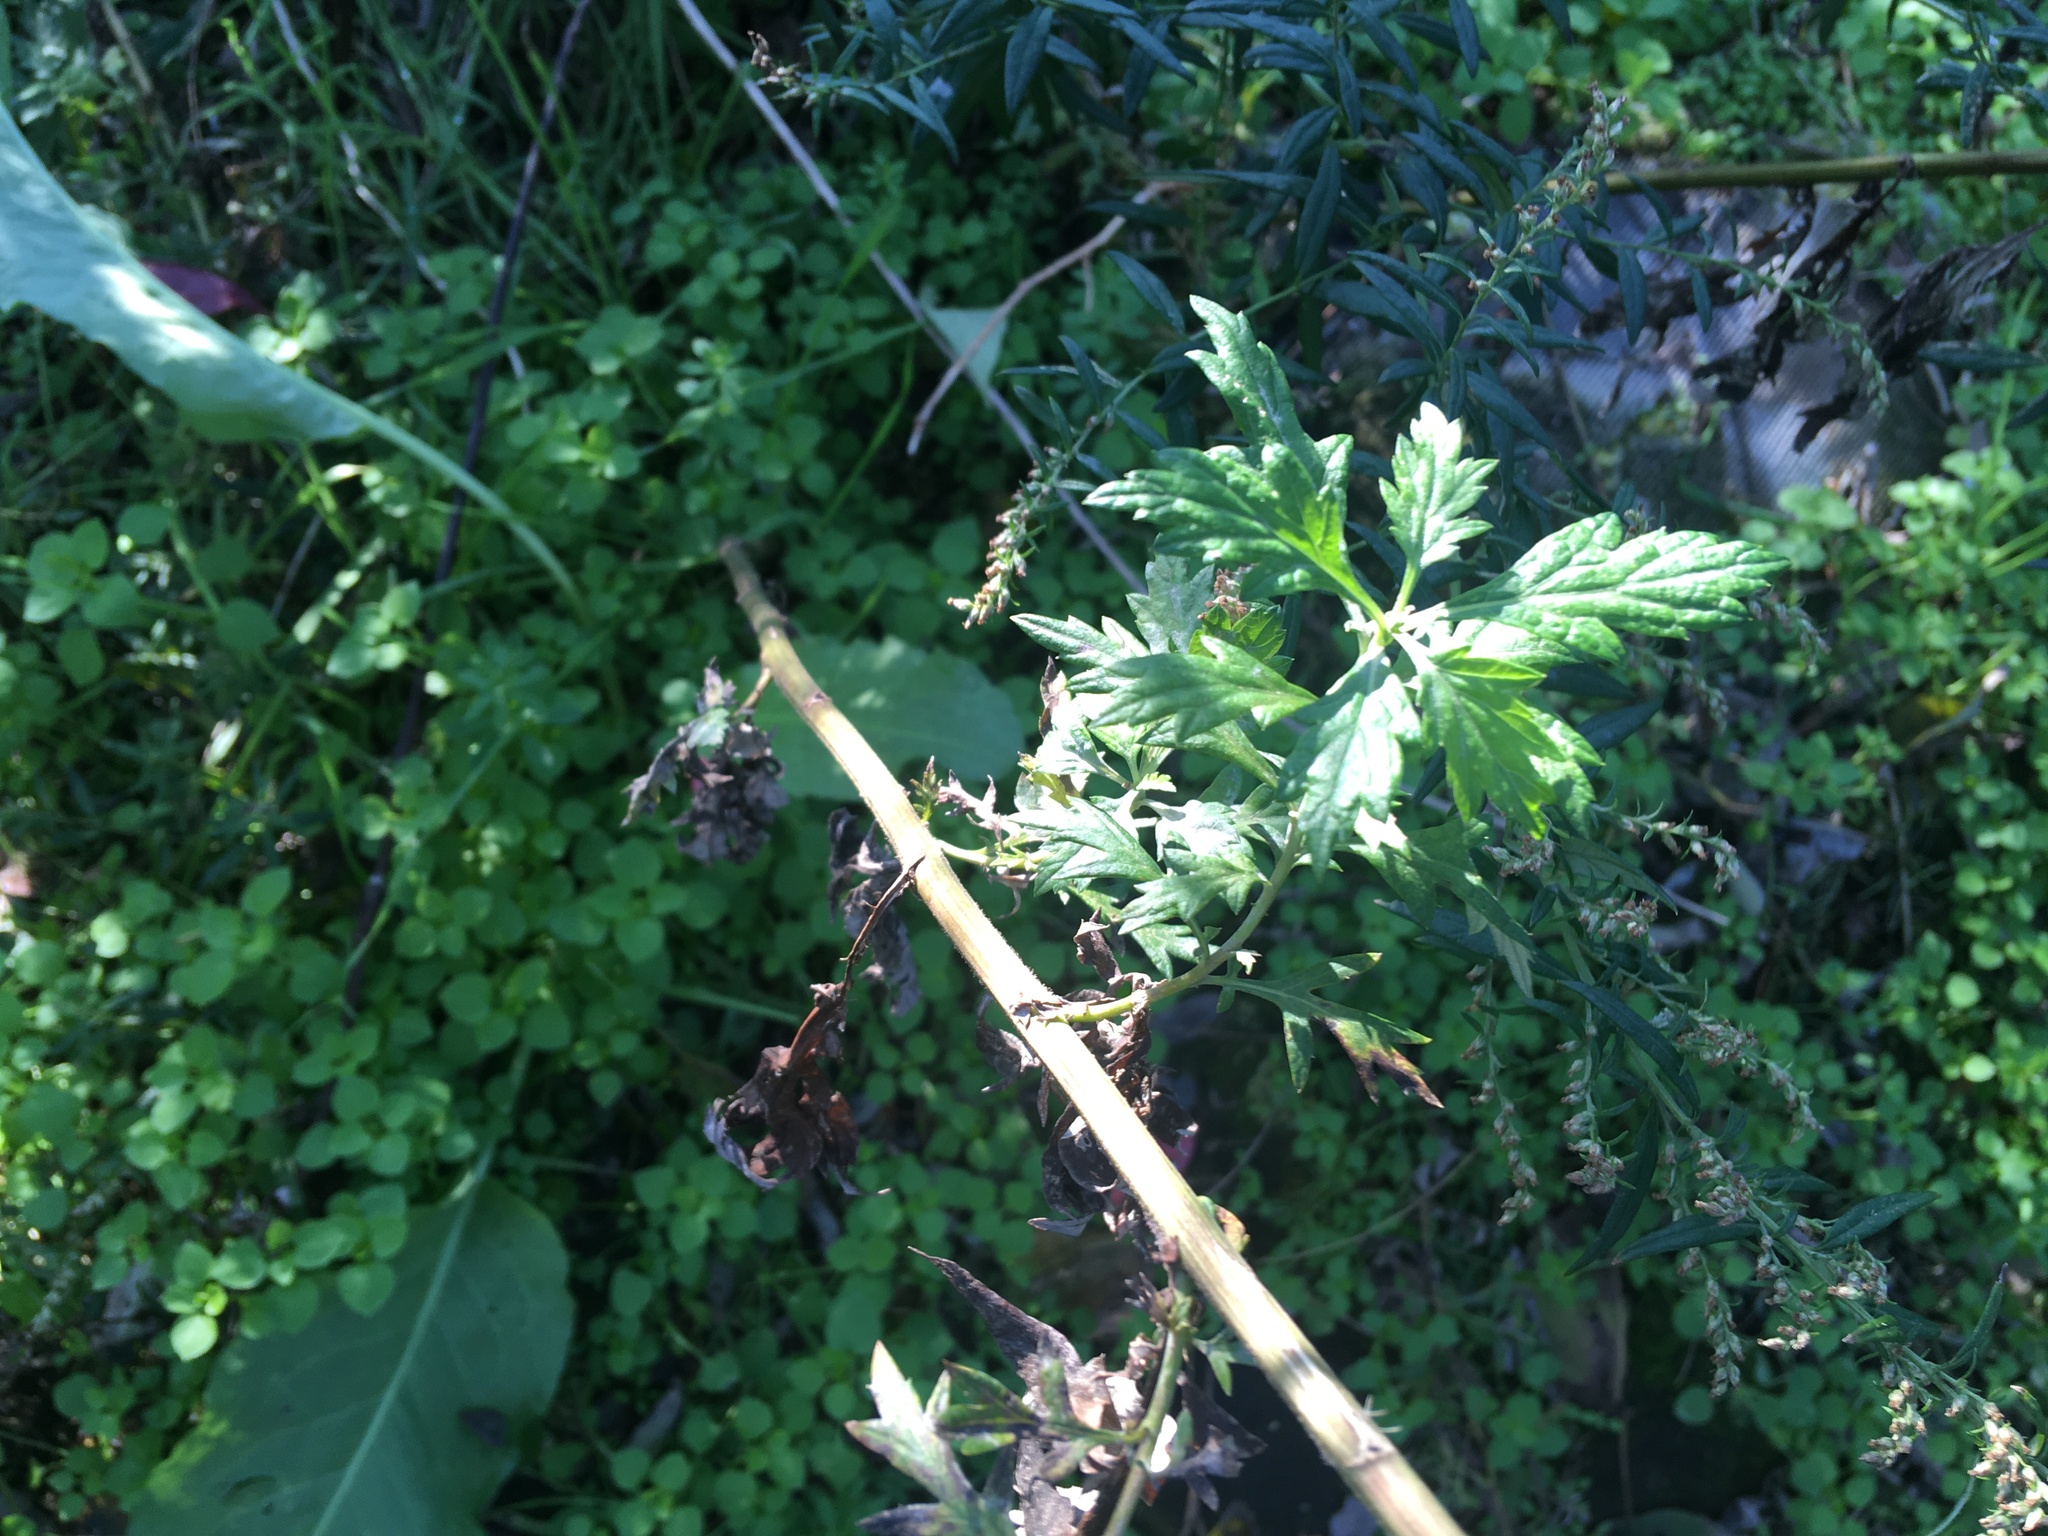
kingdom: Plantae
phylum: Tracheophyta
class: Magnoliopsida
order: Asterales
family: Asteraceae
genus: Artemisia
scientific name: Artemisia vulgaris
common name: Mugwort
